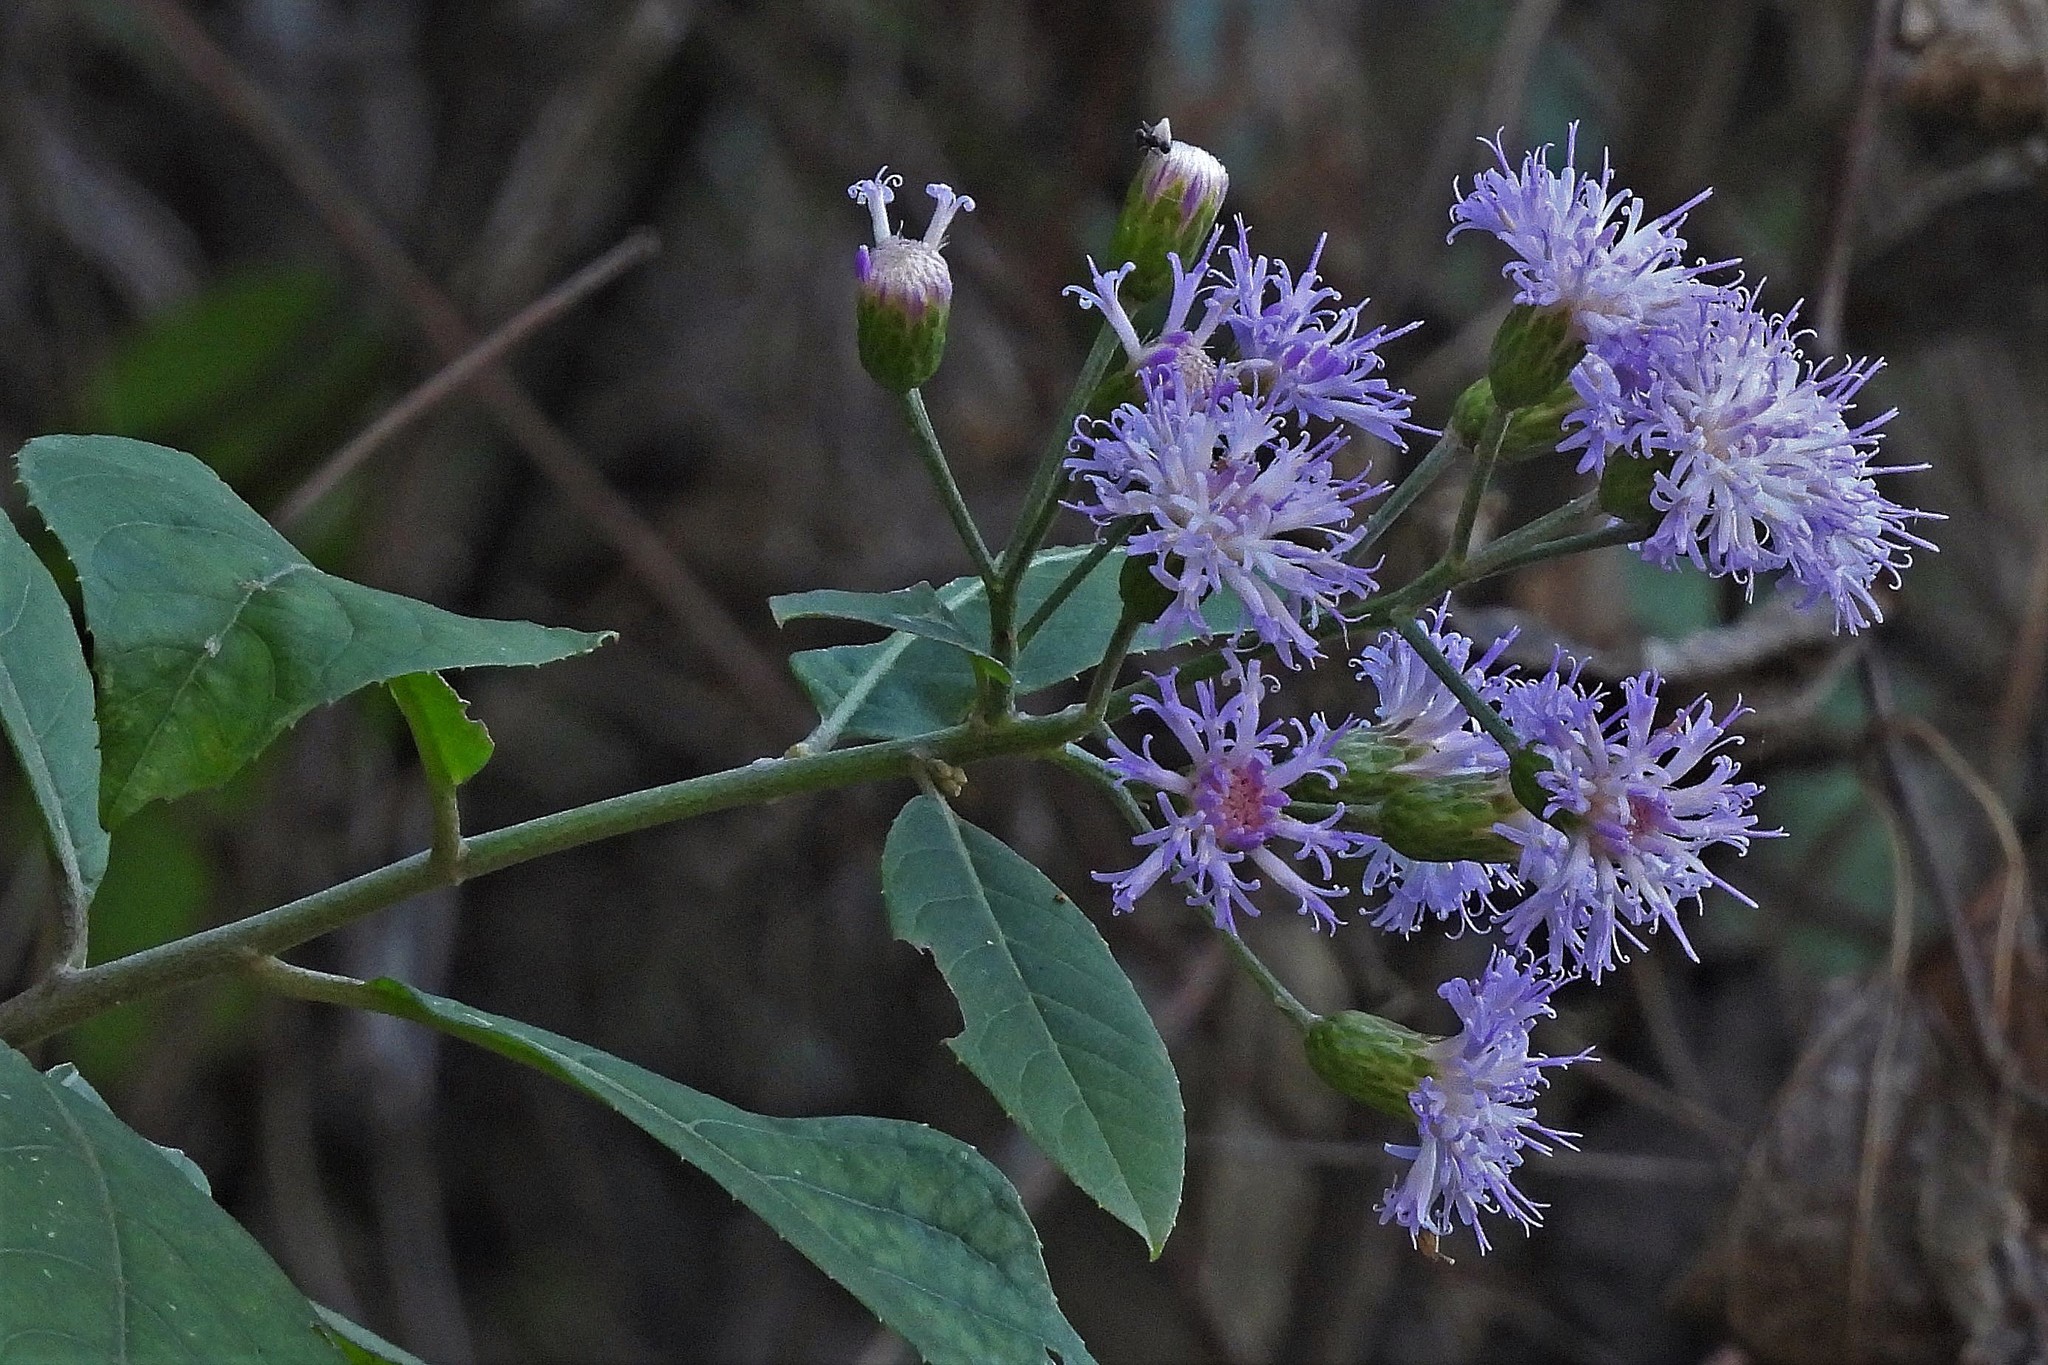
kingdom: Plantae
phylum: Tracheophyta
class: Magnoliopsida
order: Asterales
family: Asteraceae
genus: Quechualia
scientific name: Quechualia fulta
